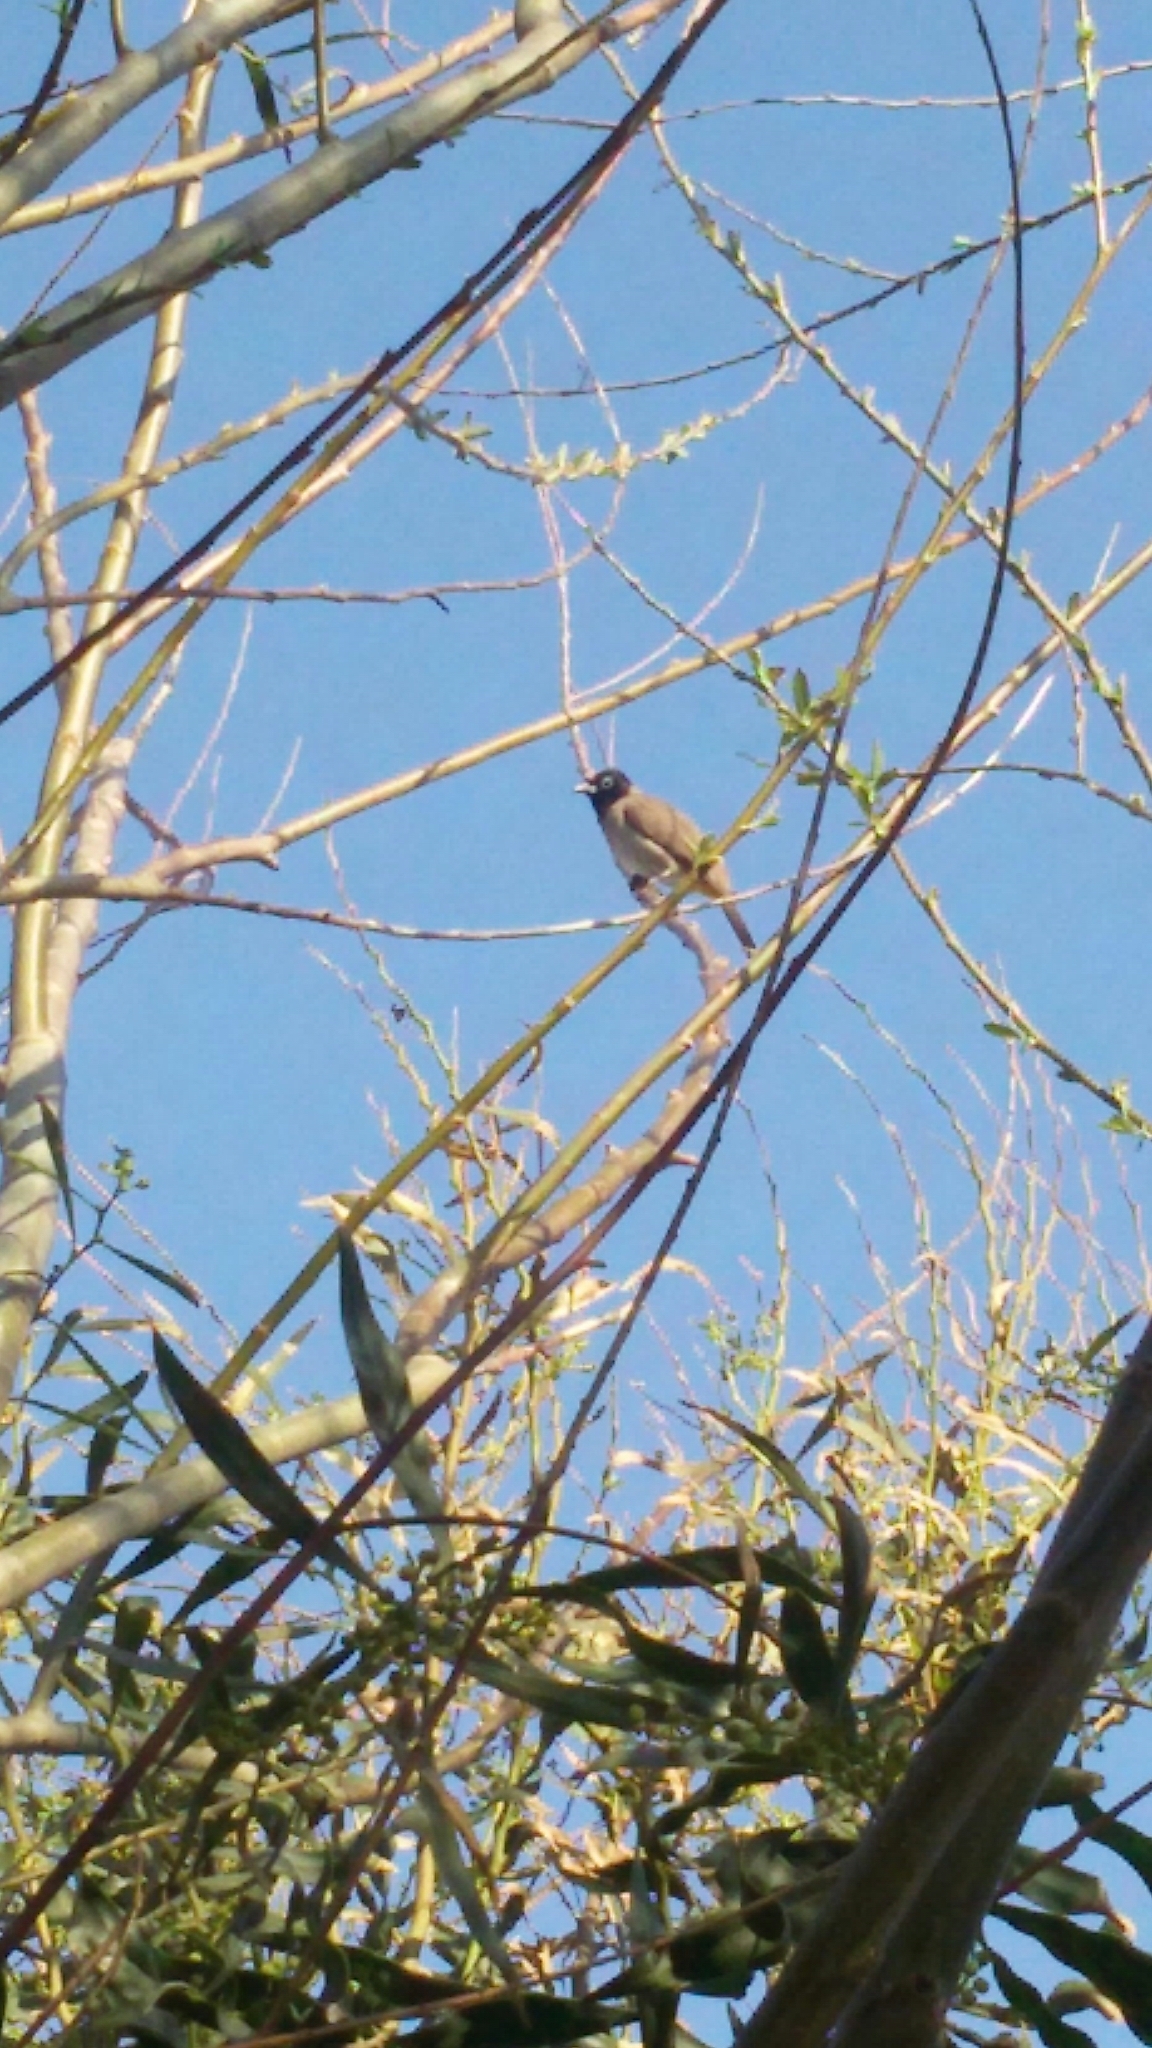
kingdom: Animalia
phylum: Chordata
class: Aves
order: Passeriformes
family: Pycnonotidae
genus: Pycnonotus
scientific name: Pycnonotus xanthopygos
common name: White-spectacled bulbul
